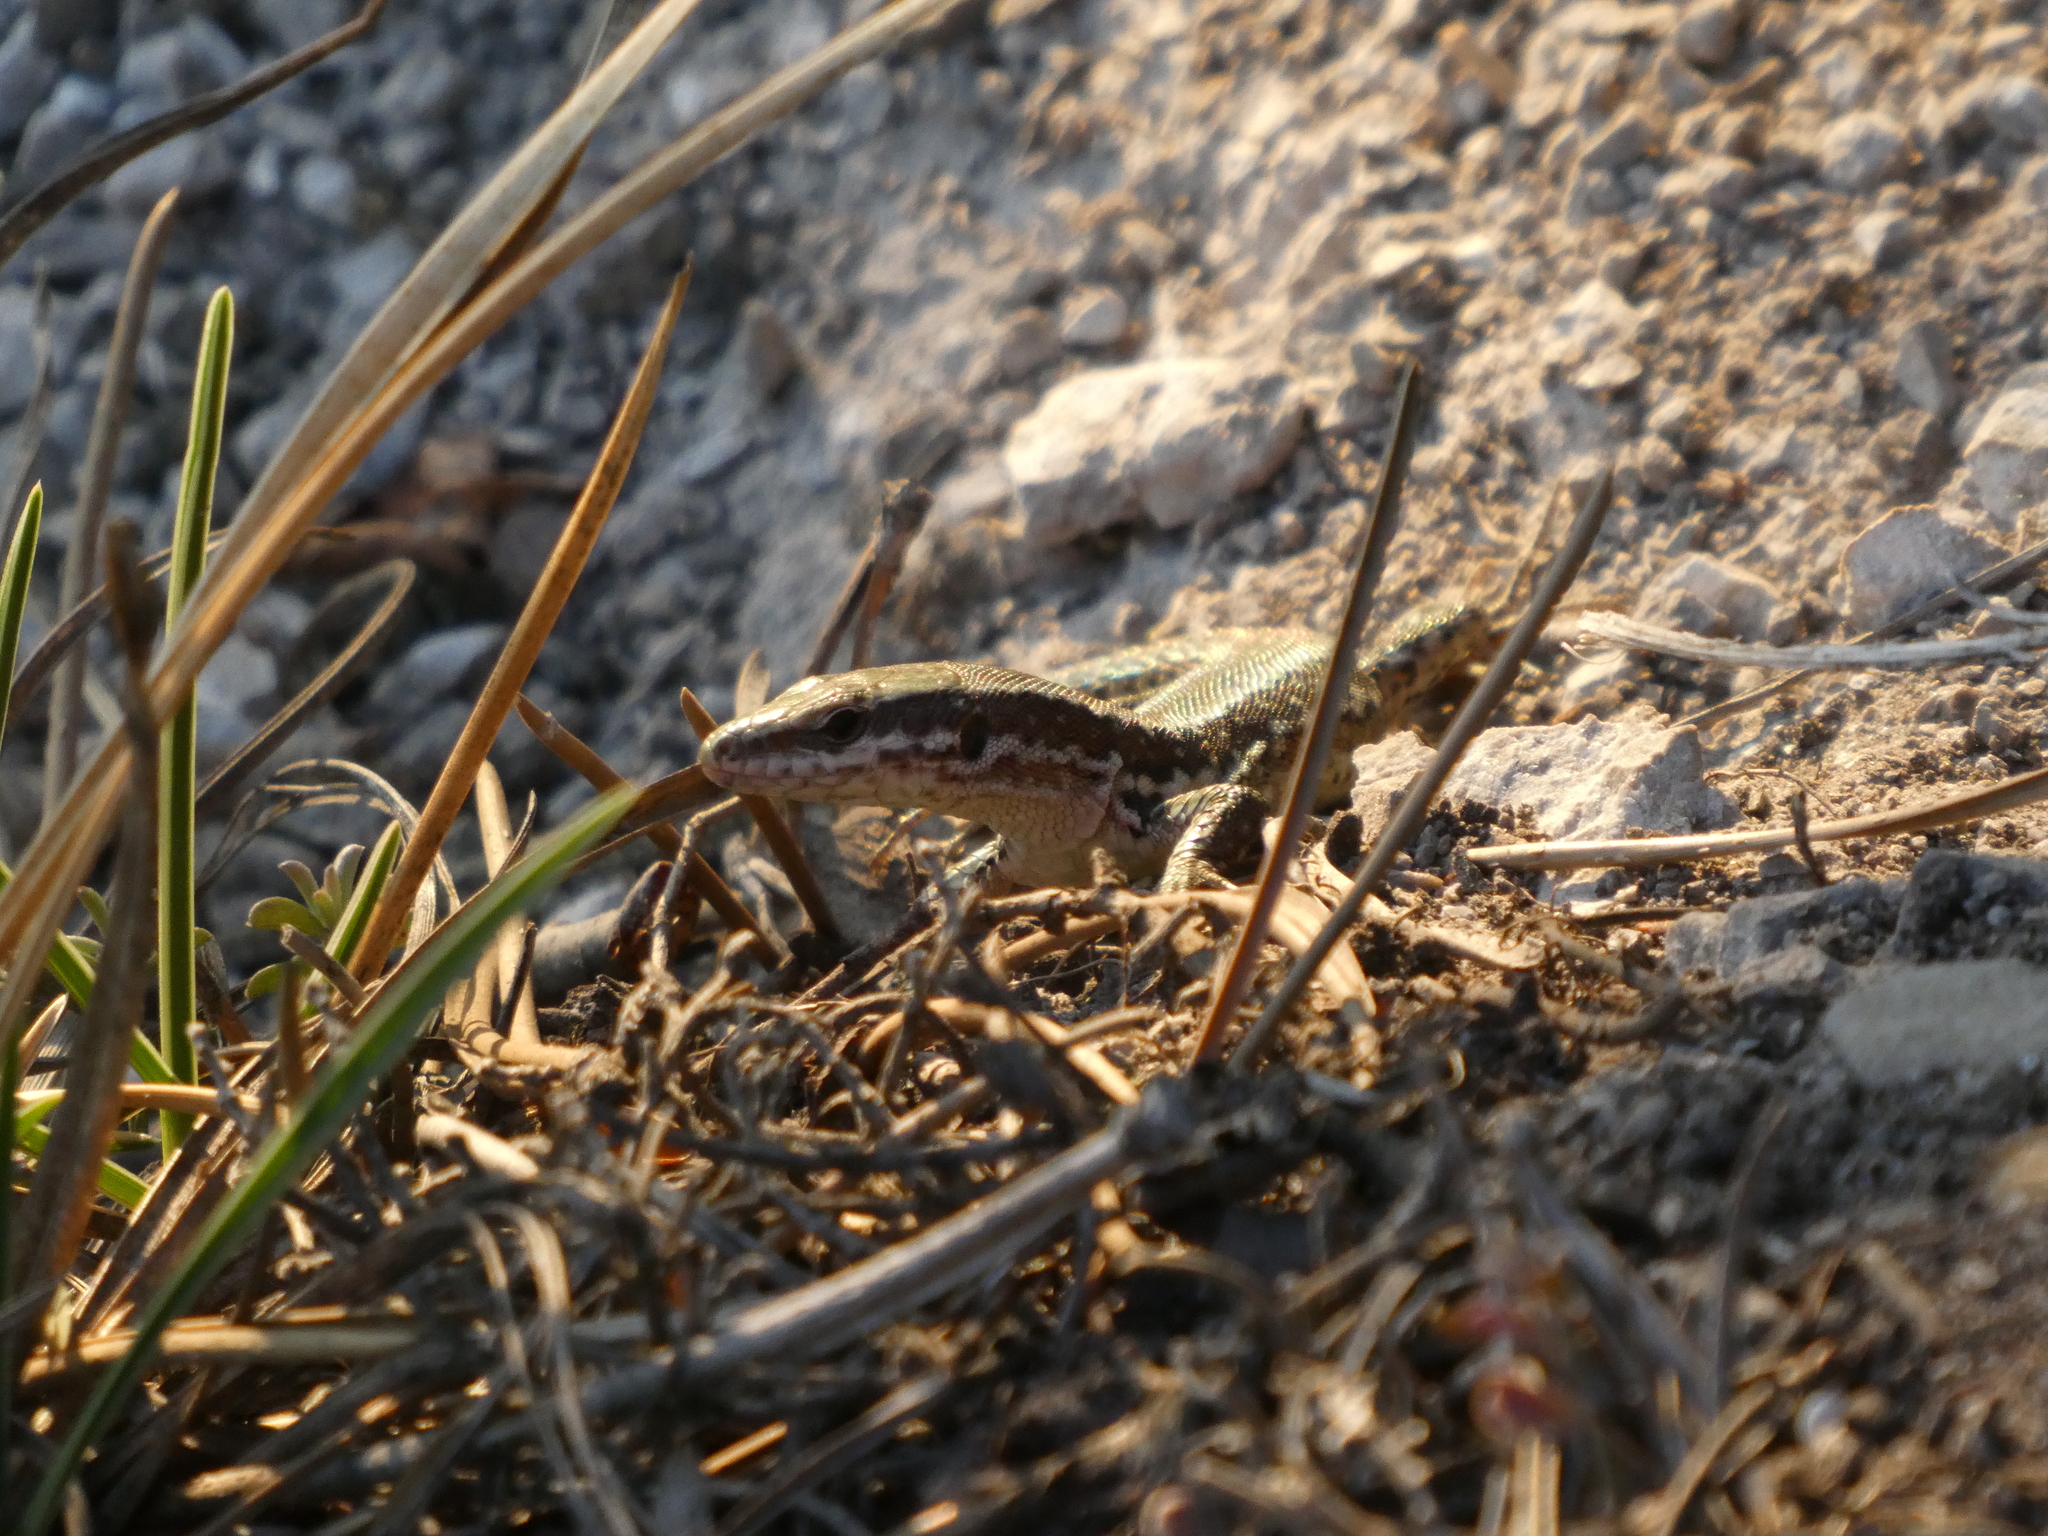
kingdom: Animalia
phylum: Chordata
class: Squamata
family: Lacertidae
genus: Podarcis
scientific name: Podarcis muralis
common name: Common wall lizard
